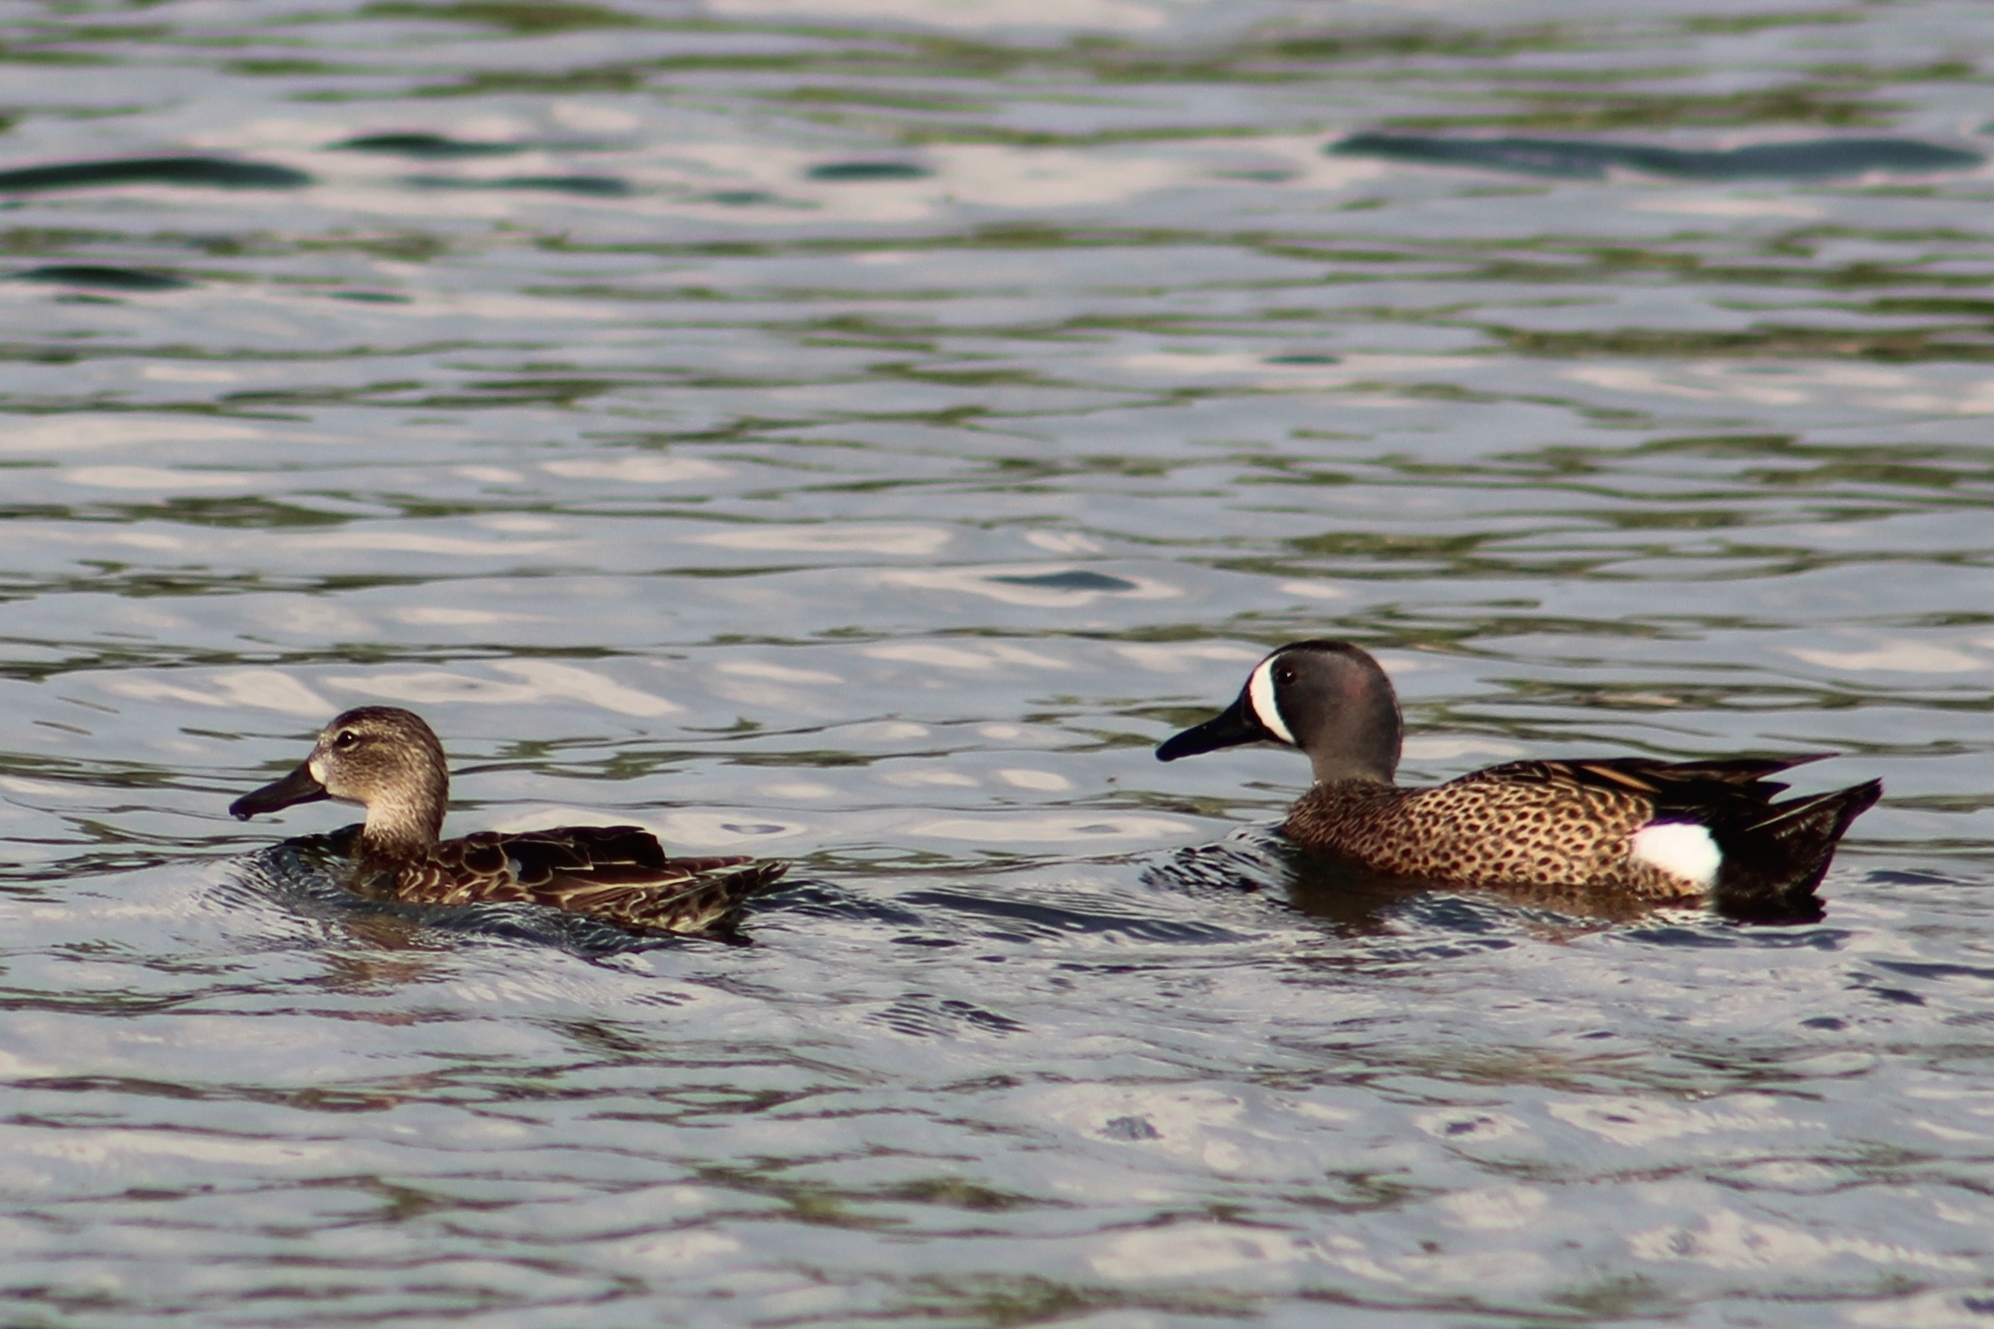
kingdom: Animalia
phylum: Chordata
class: Aves
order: Anseriformes
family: Anatidae
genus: Spatula
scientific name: Spatula discors
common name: Blue-winged teal
